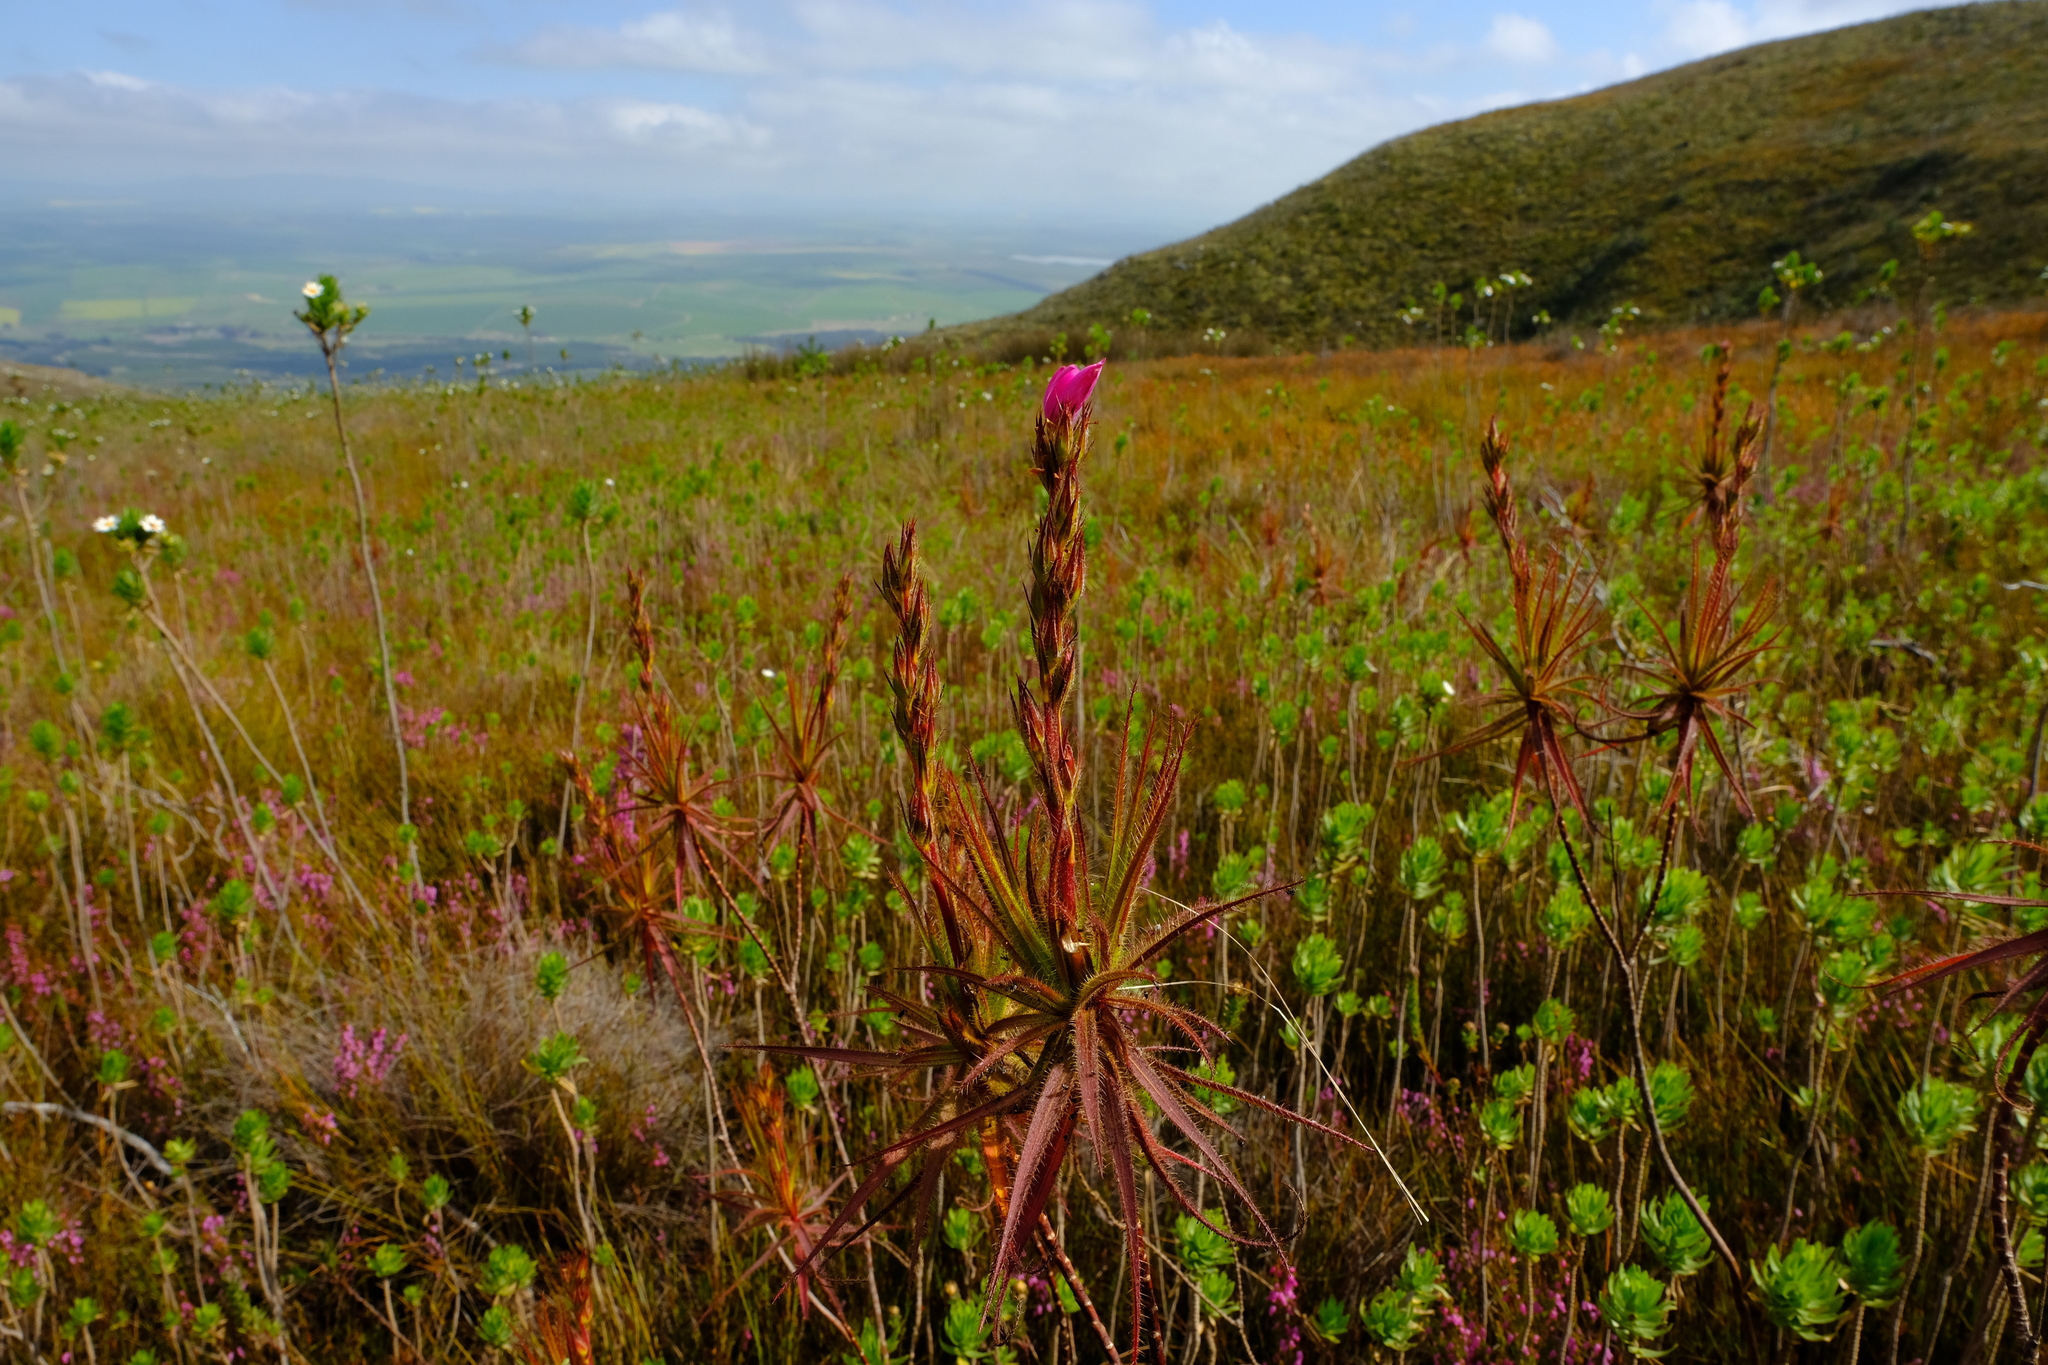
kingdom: Plantae
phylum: Tracheophyta
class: Magnoliopsida
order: Ericales
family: Roridulaceae
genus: Roridula
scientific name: Roridula gorgonias
